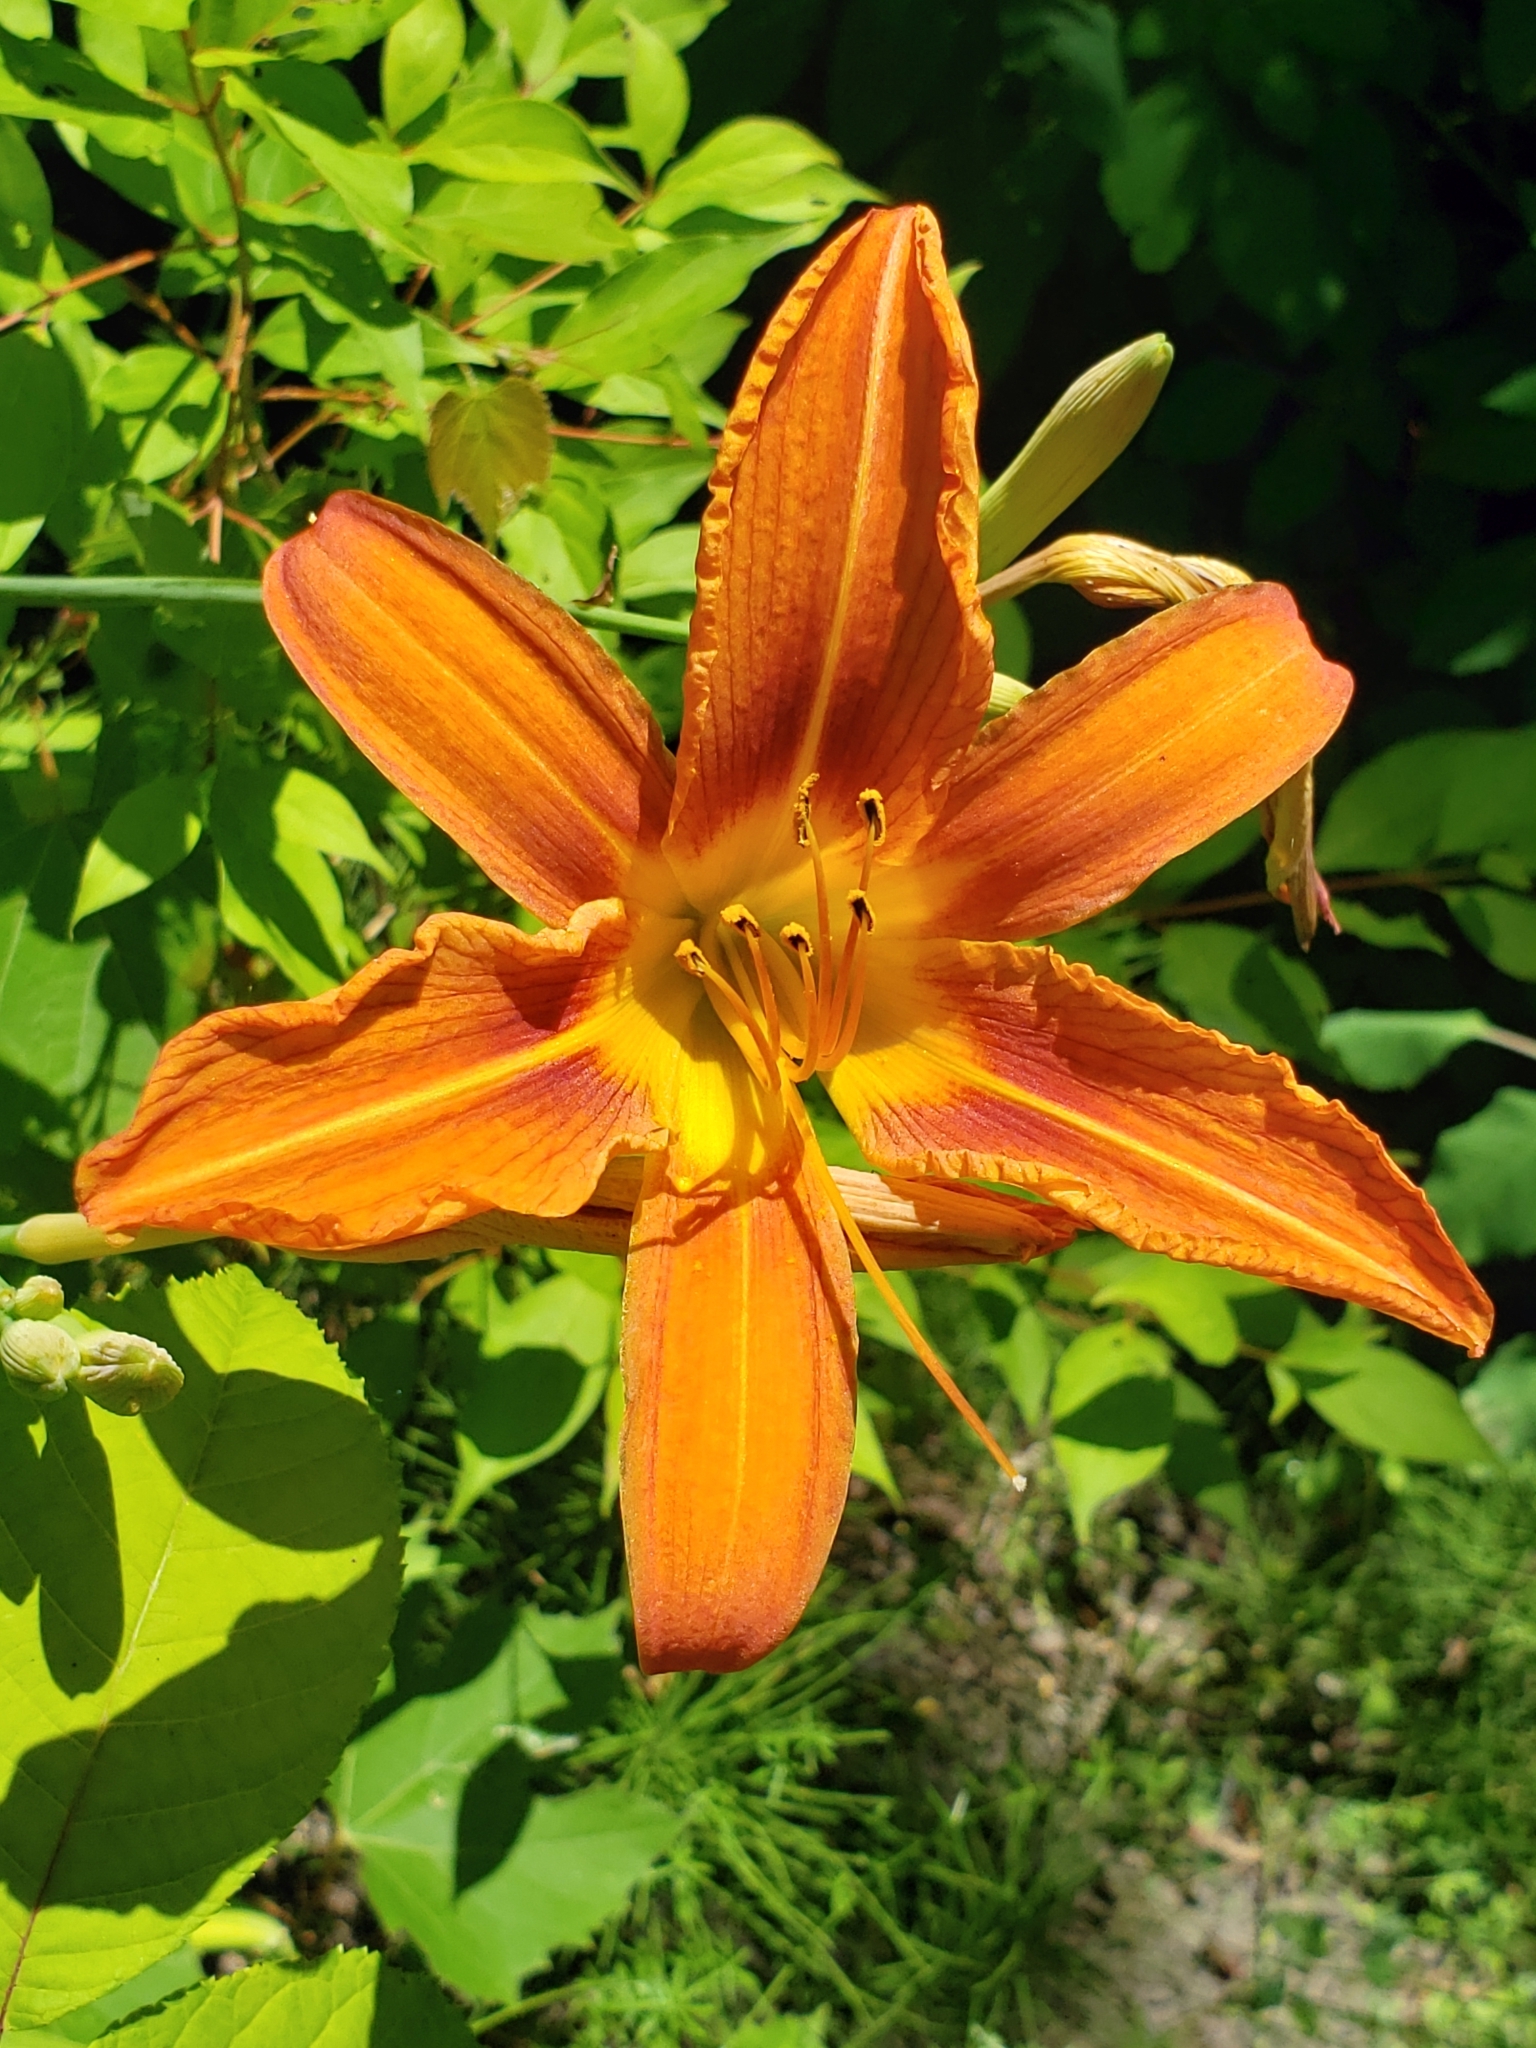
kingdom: Plantae
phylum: Tracheophyta
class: Liliopsida
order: Asparagales
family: Asphodelaceae
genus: Hemerocallis
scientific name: Hemerocallis fulva
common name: Orange day-lily
